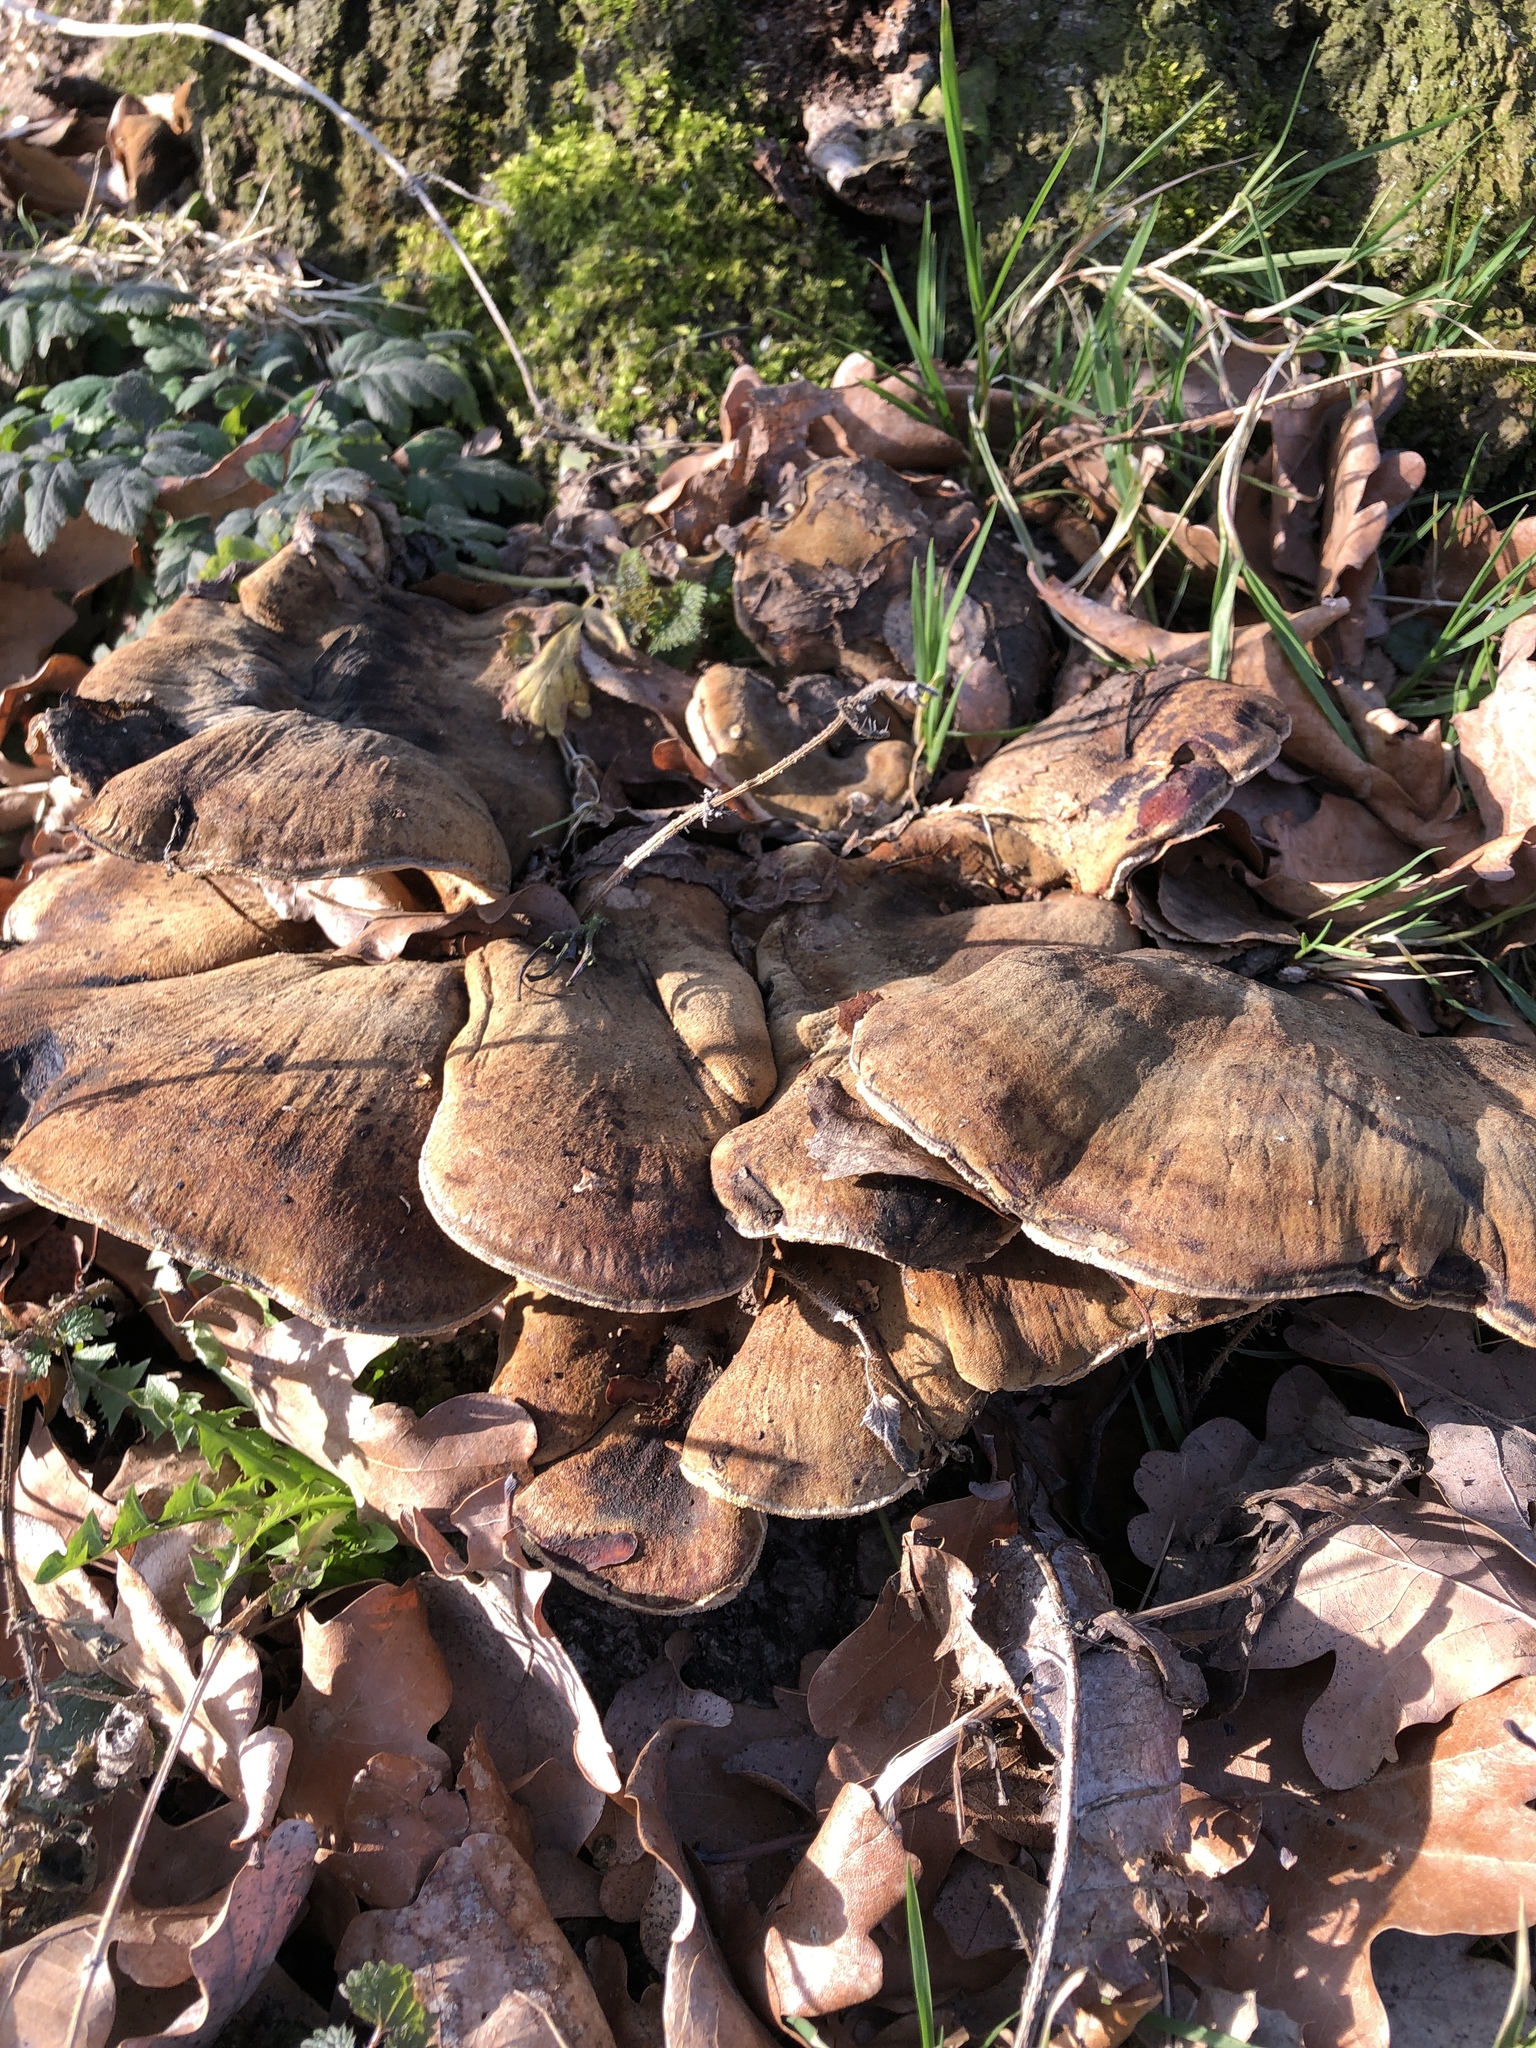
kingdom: Fungi
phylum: Basidiomycota
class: Agaricomycetes
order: Polyporales
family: Ischnodermataceae
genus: Ischnoderma
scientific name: Ischnoderma resinosum
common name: Resinous polypore
